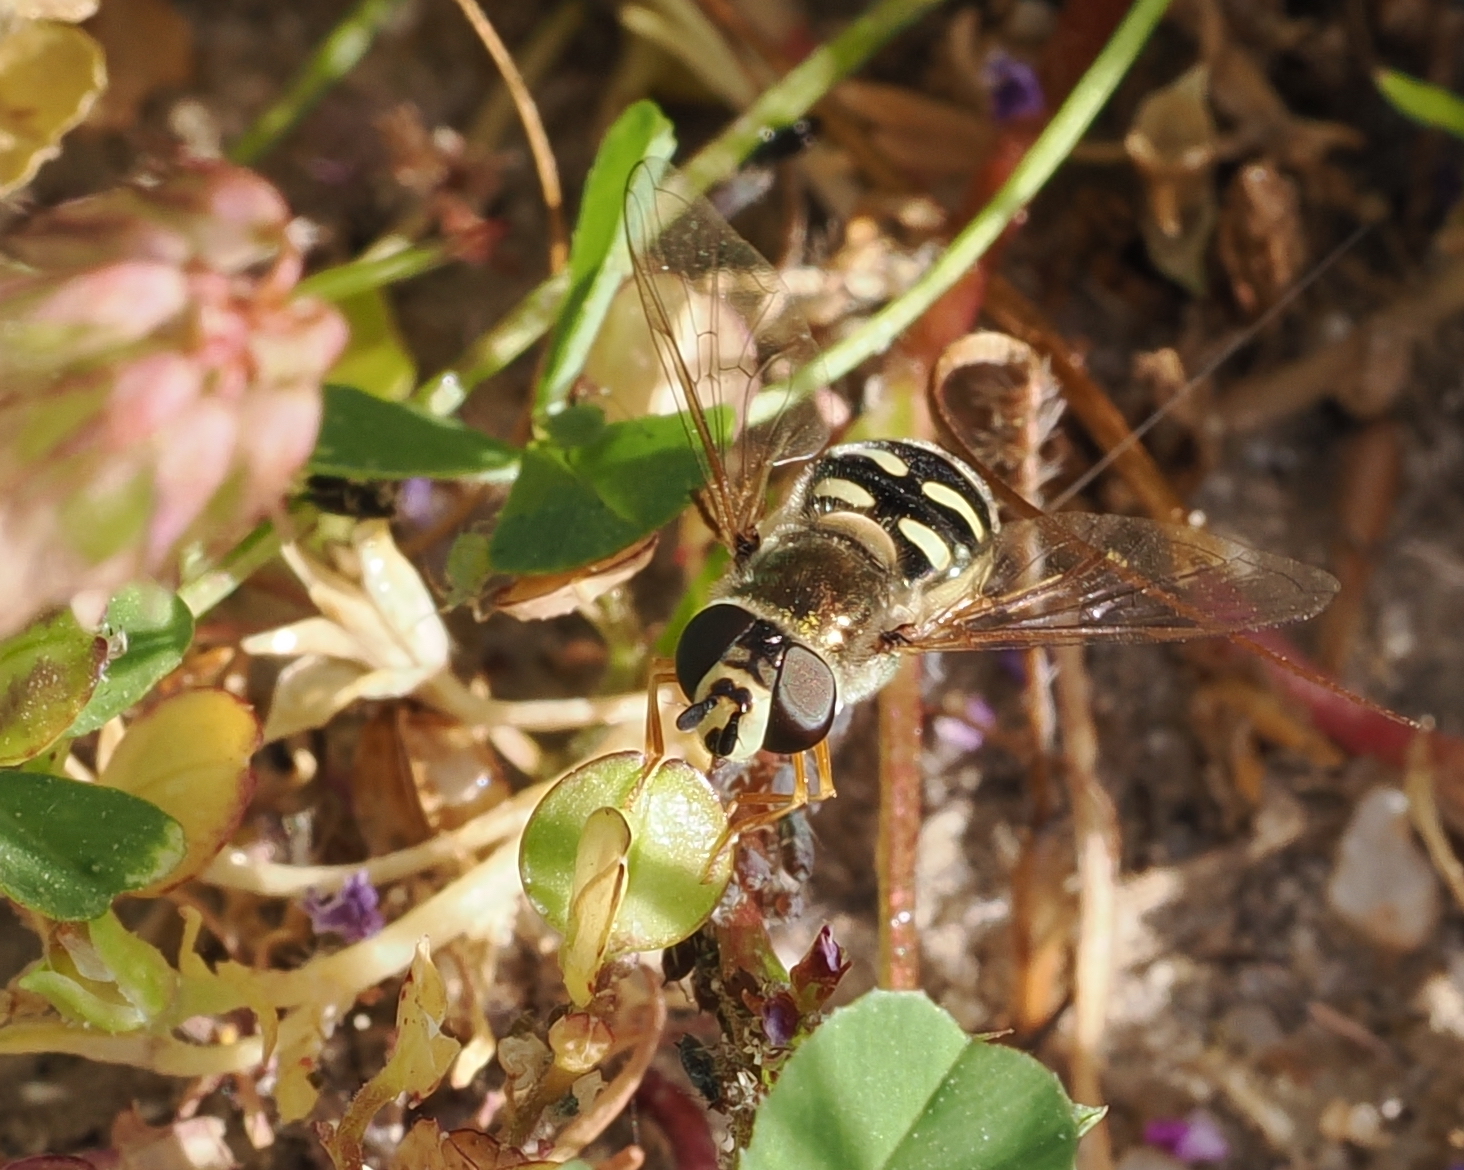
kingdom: Animalia
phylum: Arthropoda
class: Insecta
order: Diptera
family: Syrphidae
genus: Eupeodes
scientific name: Eupeodes volucris
